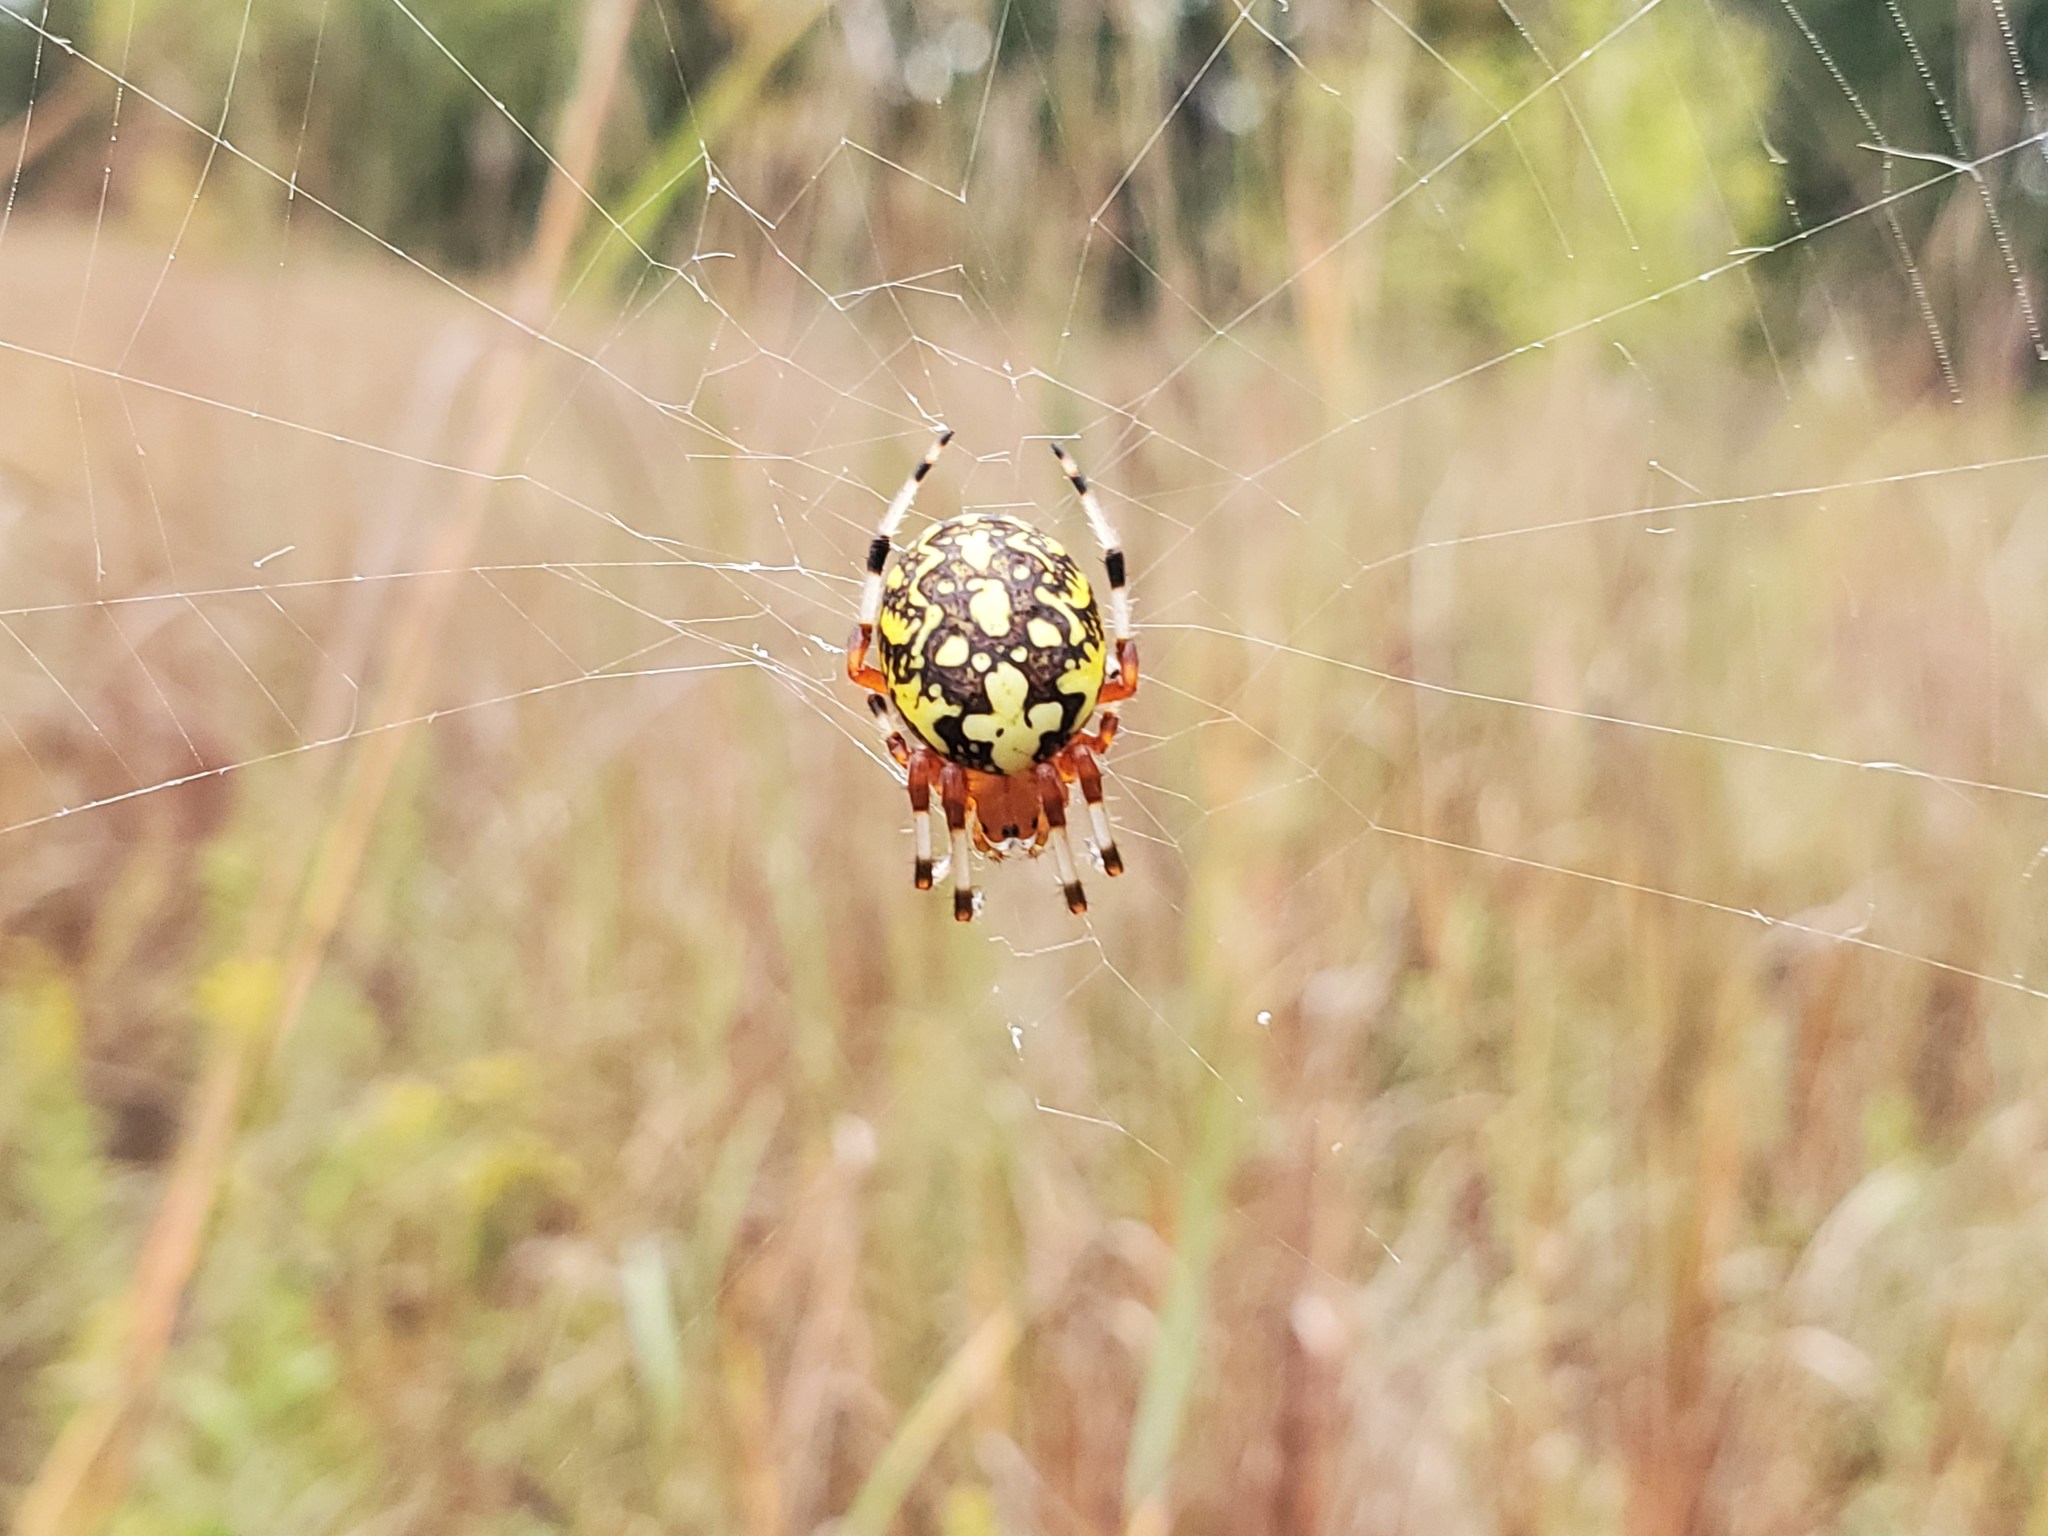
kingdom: Animalia
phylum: Arthropoda
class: Arachnida
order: Araneae
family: Araneidae
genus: Araneus
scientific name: Araneus marmoreus
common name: Marbled orbweaver
